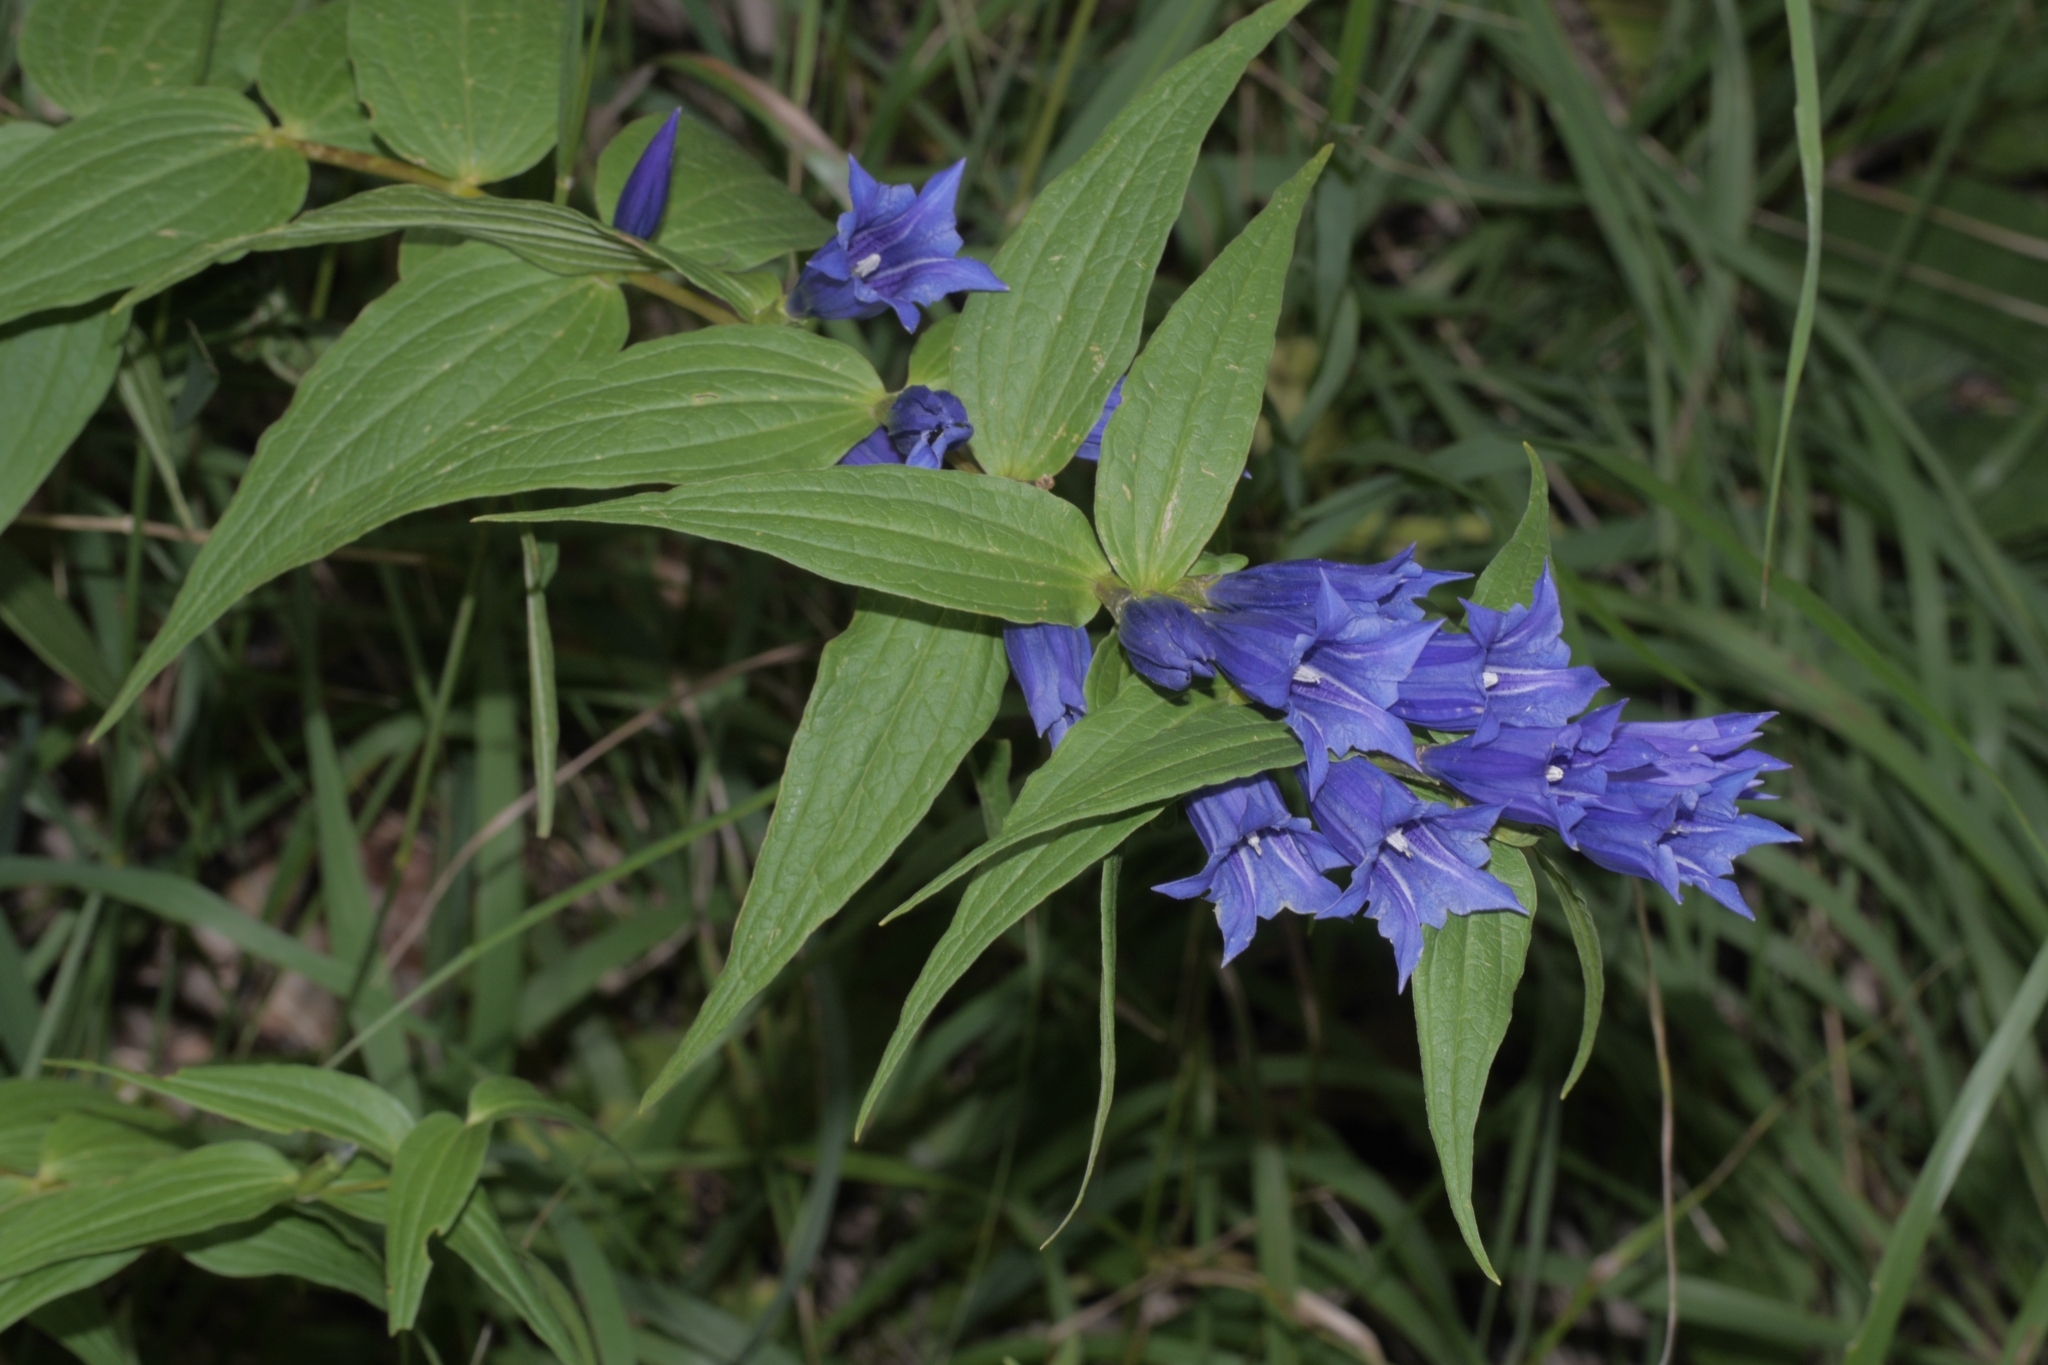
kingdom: Plantae
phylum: Tracheophyta
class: Magnoliopsida
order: Gentianales
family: Gentianaceae
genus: Gentiana
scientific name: Gentiana asclepiadea
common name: Willow gentian
